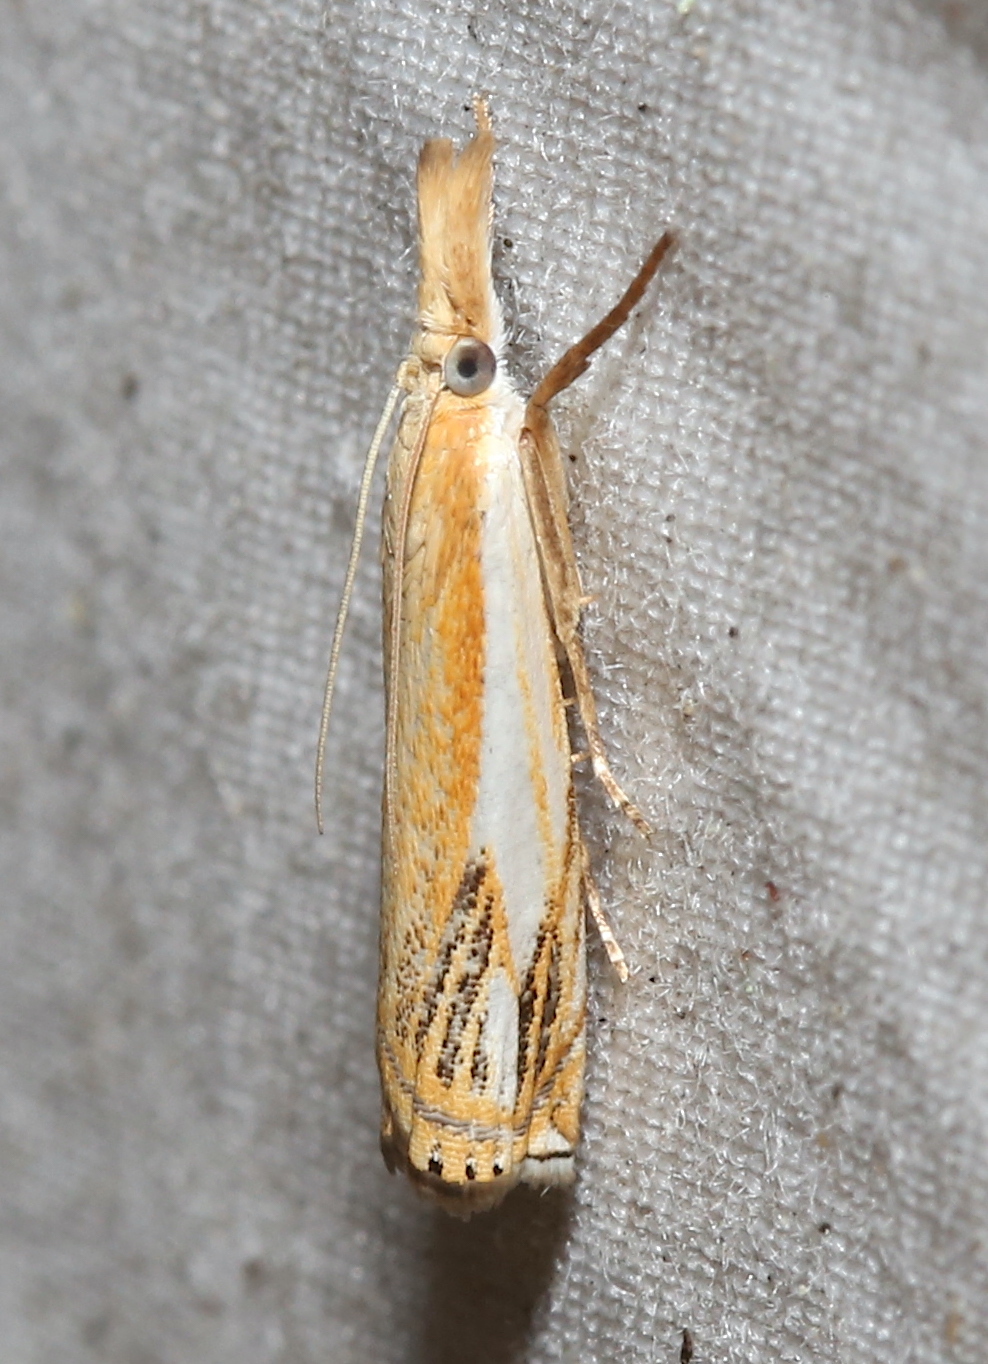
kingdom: Animalia
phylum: Arthropoda
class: Insecta
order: Lepidoptera
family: Crambidae
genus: Crambus
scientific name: Crambus agitatellus
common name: Double-banded grass-veneer
